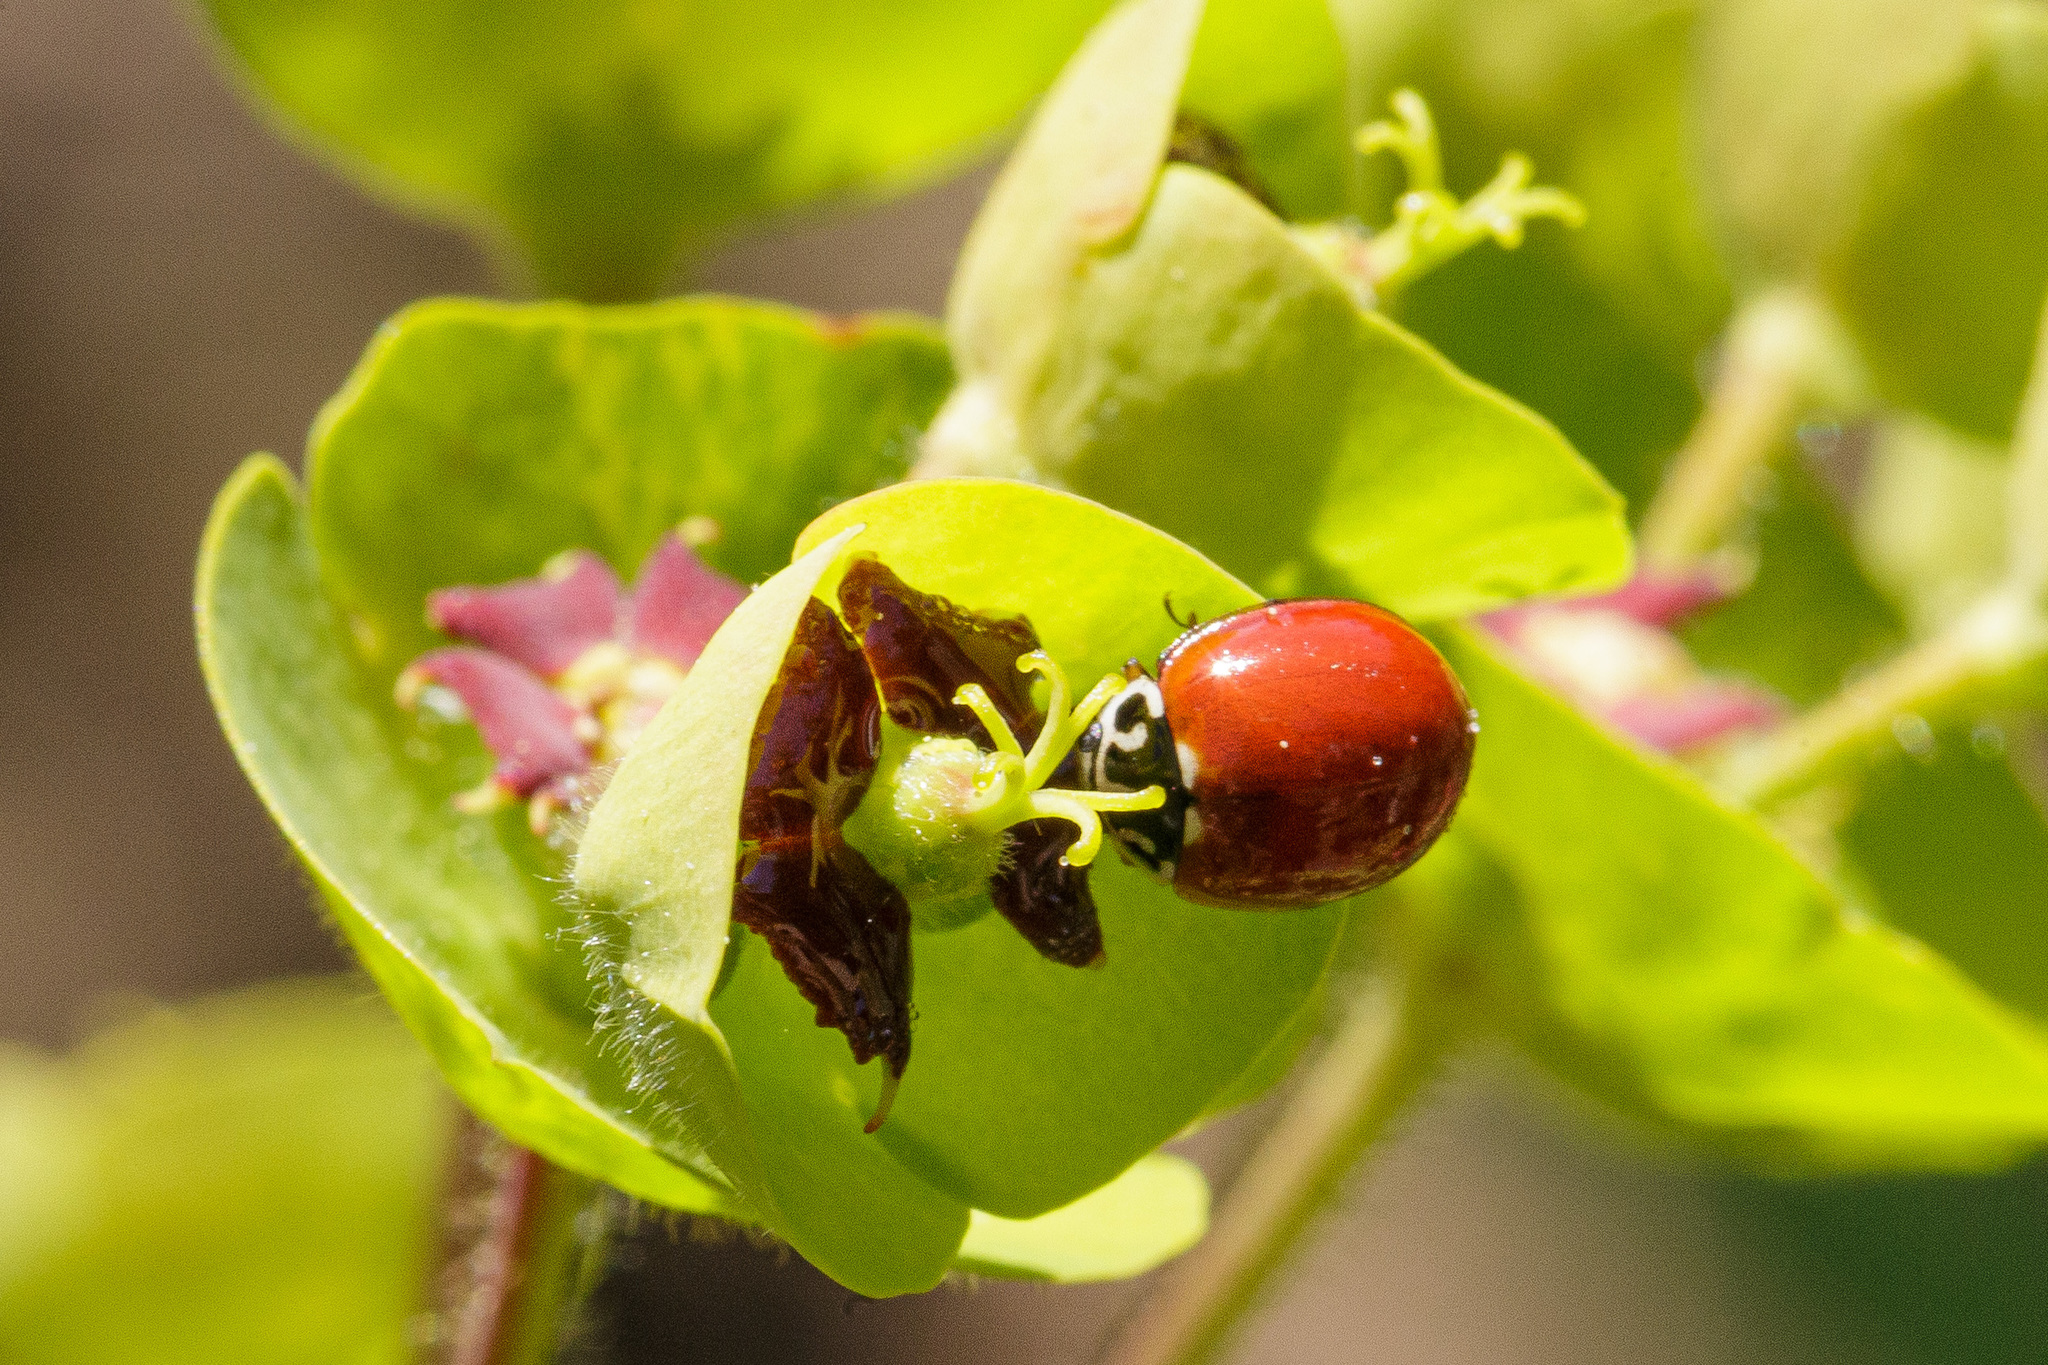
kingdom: Animalia
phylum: Arthropoda
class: Insecta
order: Coleoptera
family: Coccinellidae
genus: Cycloneda
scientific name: Cycloneda polita
